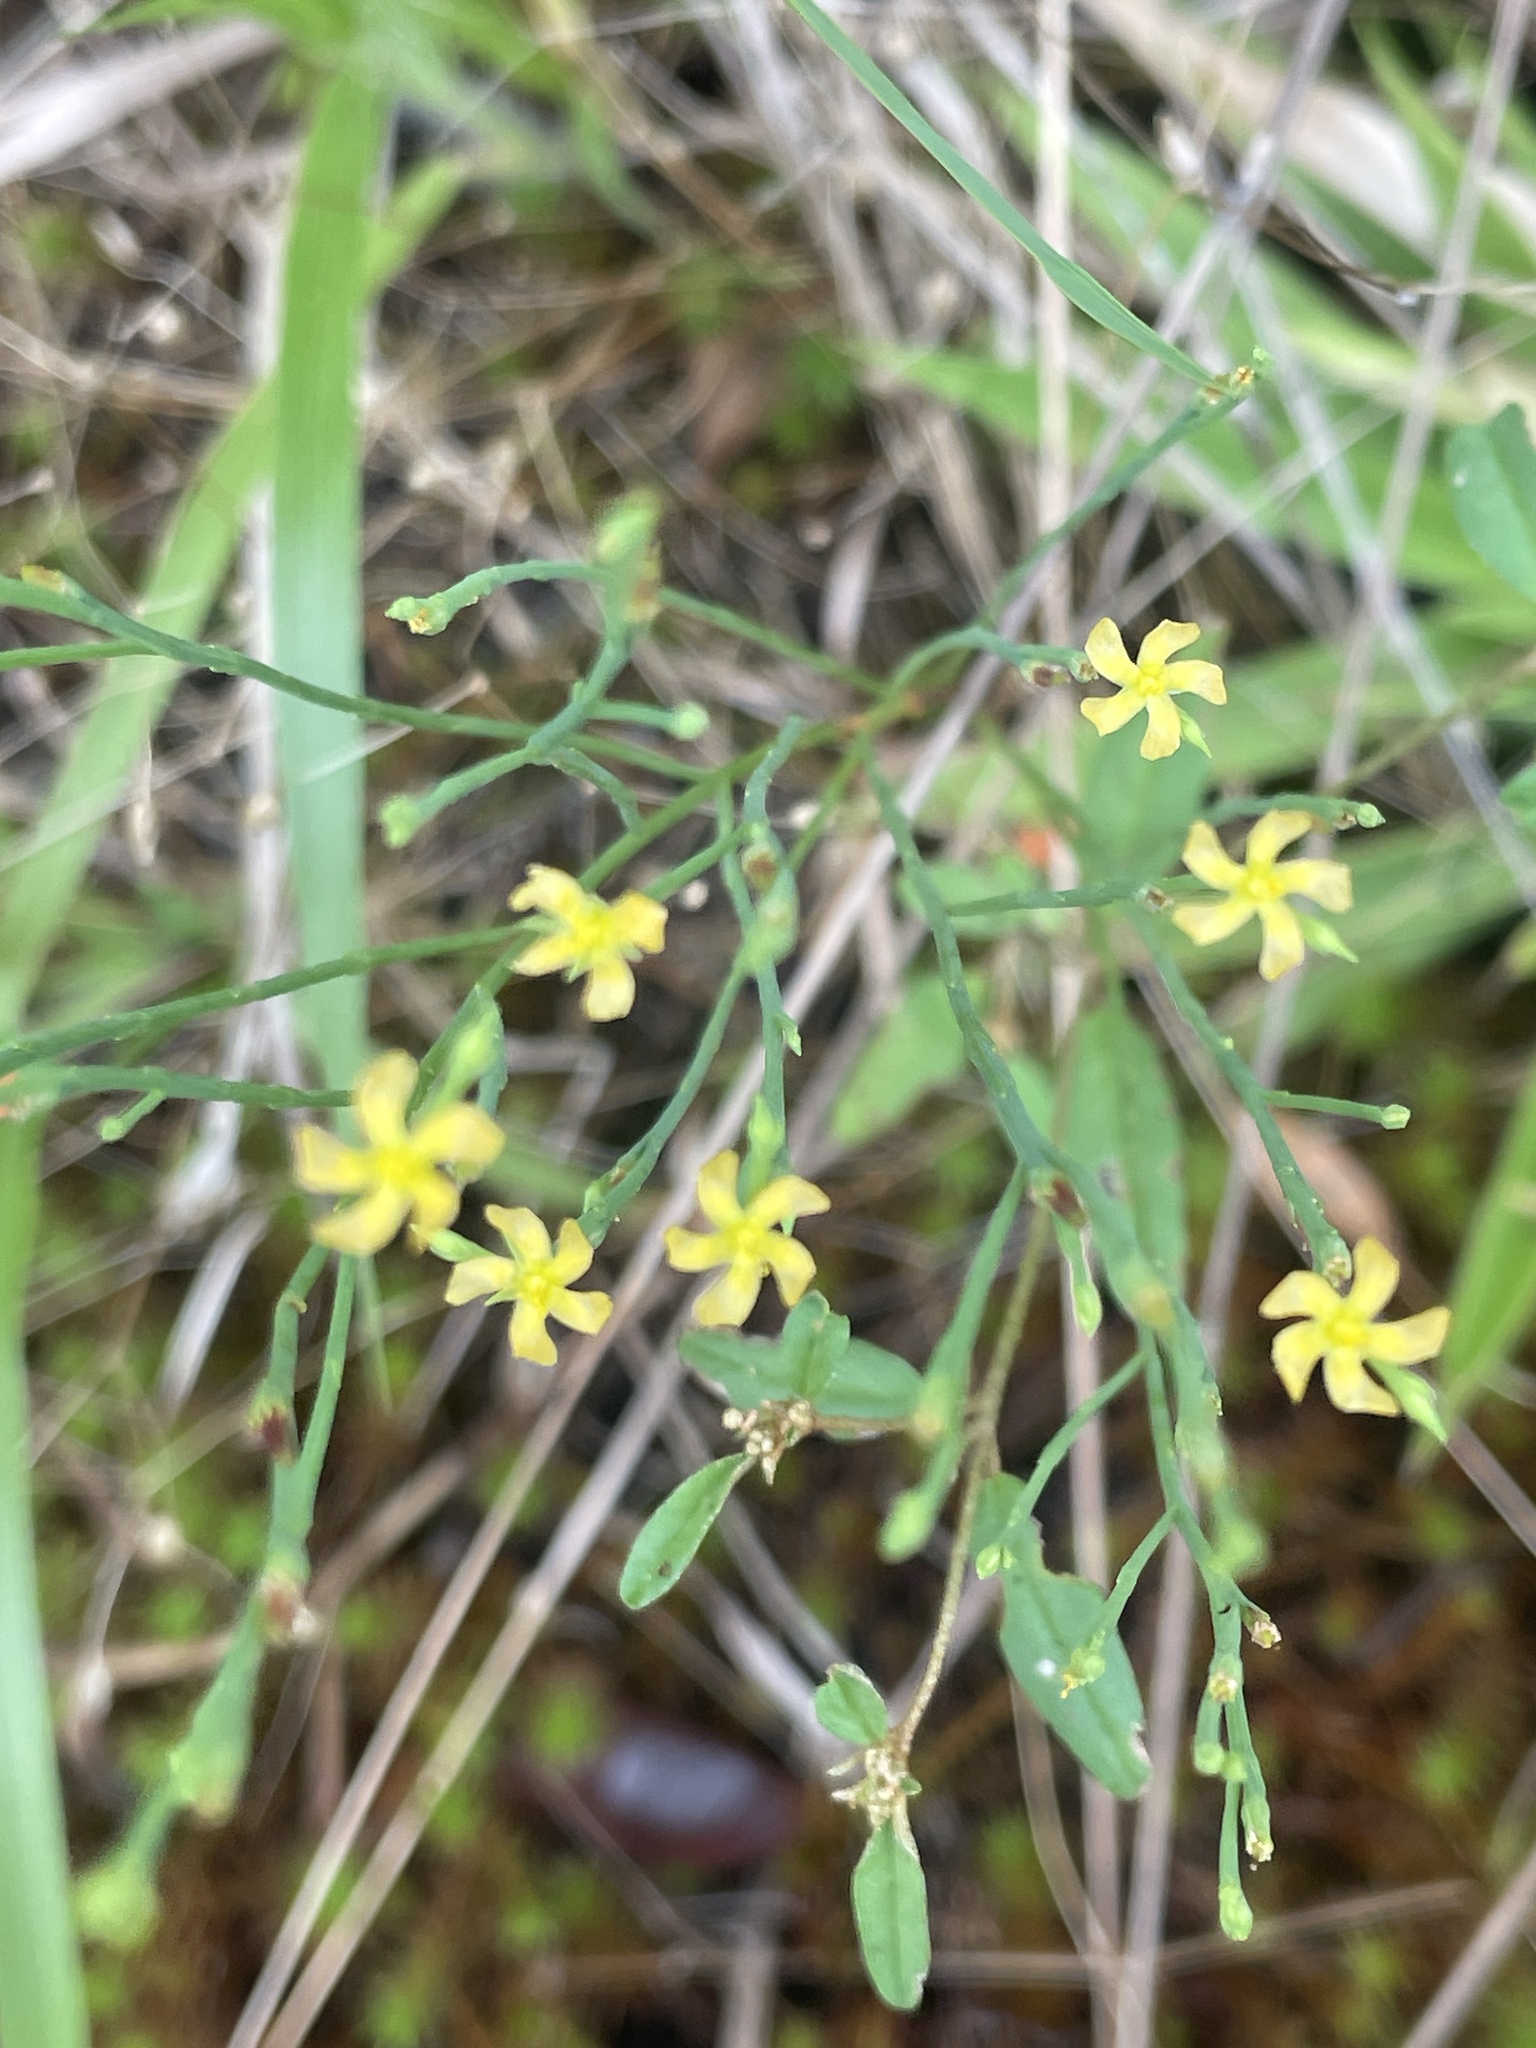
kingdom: Plantae
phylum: Tracheophyta
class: Magnoliopsida
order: Malpighiales
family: Hypericaceae
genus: Hypericum
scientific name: Hypericum gentianoides
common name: Gentian-leaved st. john's-wort
